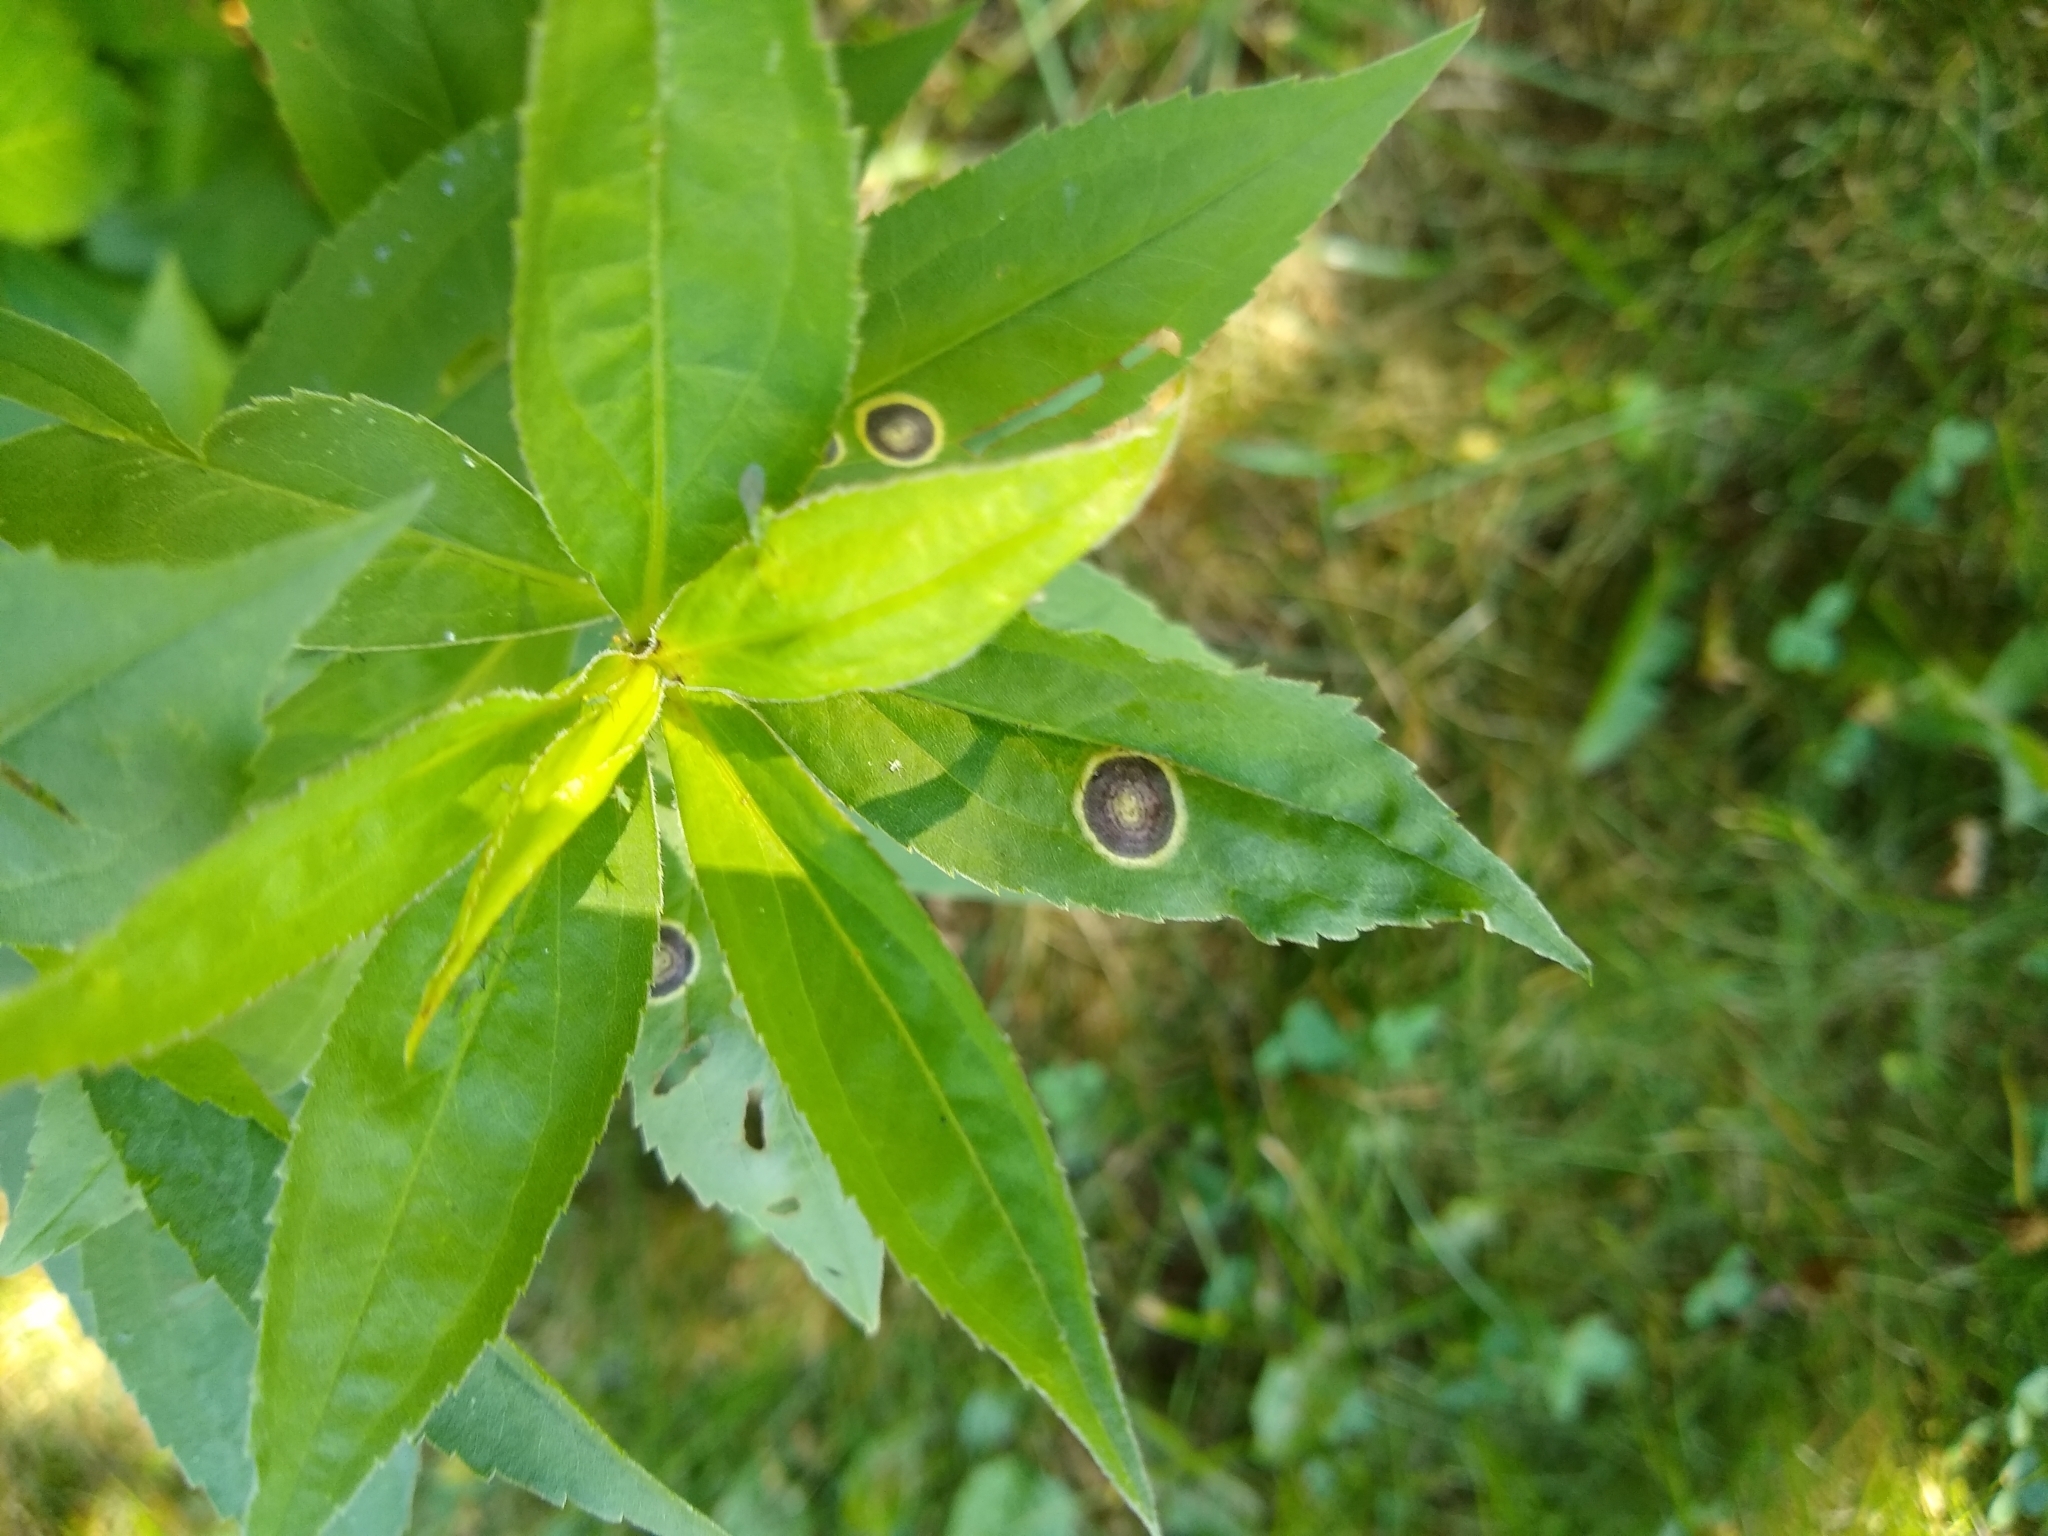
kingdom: Animalia
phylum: Arthropoda
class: Insecta
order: Diptera
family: Cecidomyiidae
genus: Asteromyia
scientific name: Asteromyia carbonifera
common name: Carbonifera goldenrod gall midge
